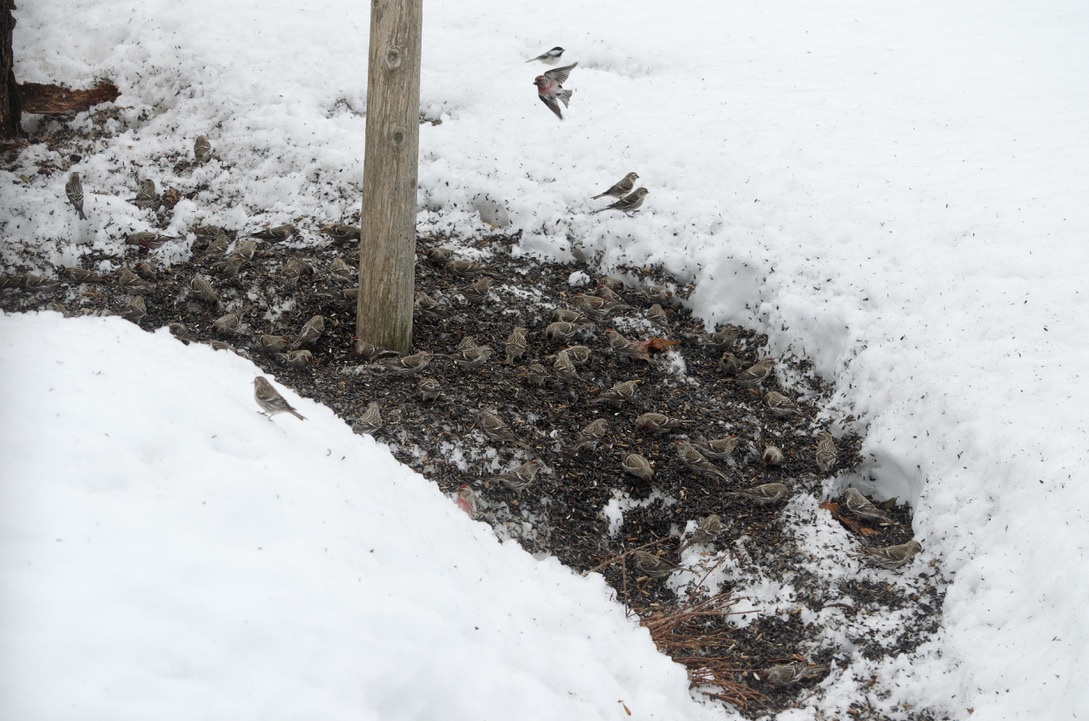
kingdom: Animalia
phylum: Chordata
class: Aves
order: Passeriformes
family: Fringillidae
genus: Acanthis
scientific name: Acanthis flammea
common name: Common redpoll
